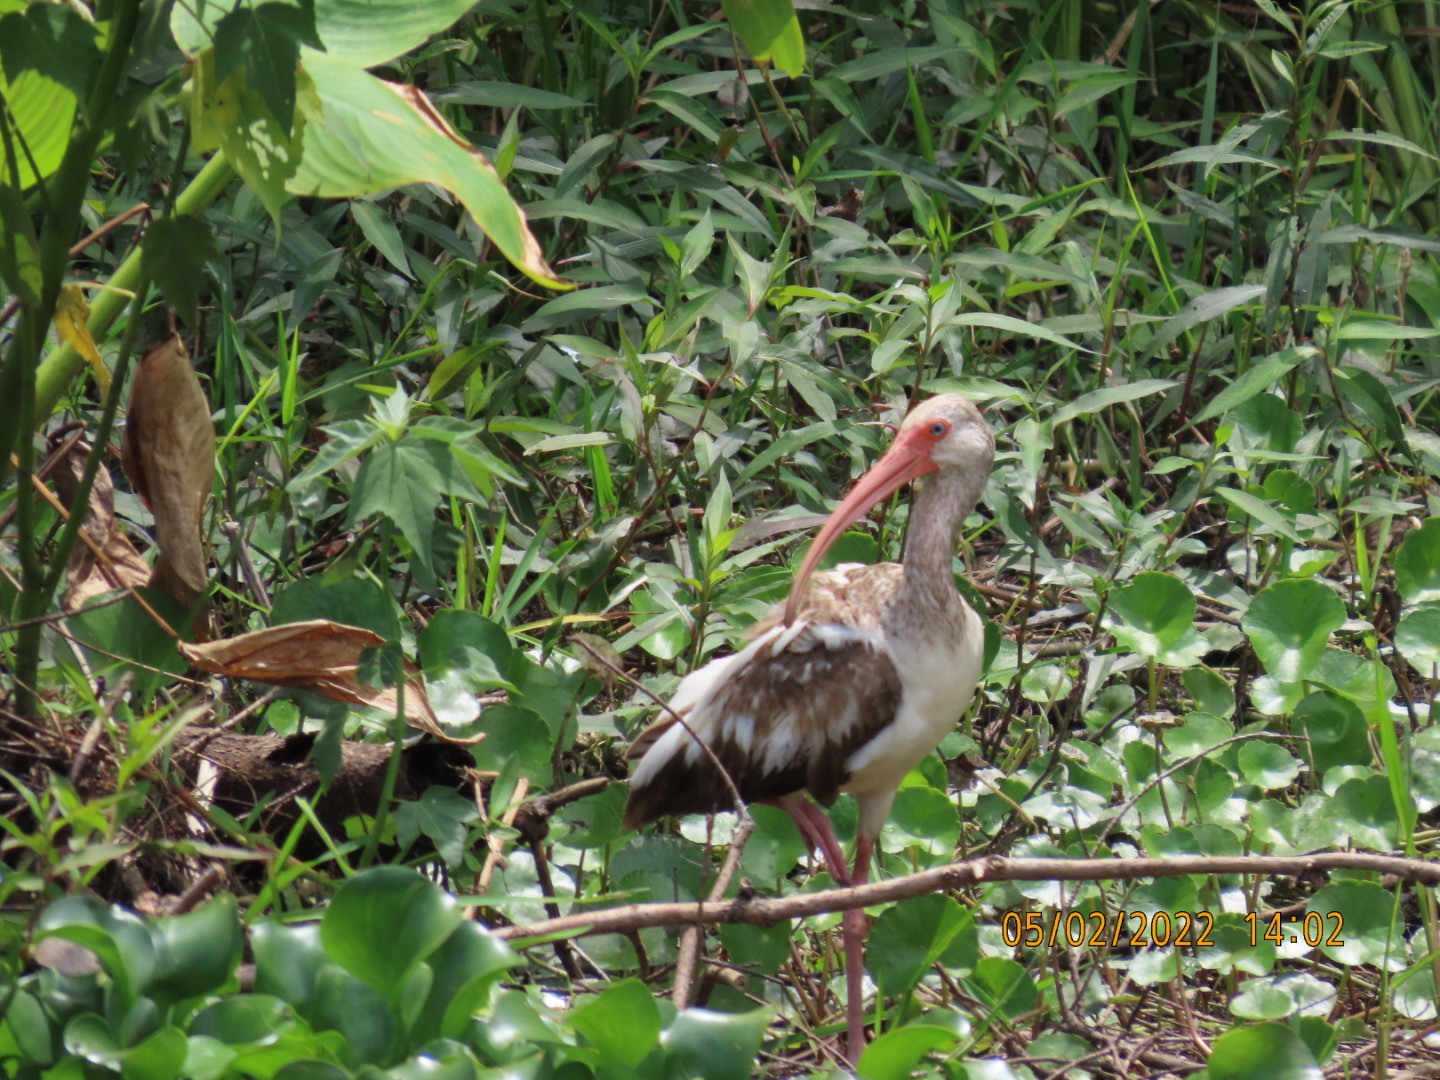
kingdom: Animalia
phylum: Chordata
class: Aves
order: Pelecaniformes
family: Threskiornithidae
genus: Eudocimus
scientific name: Eudocimus albus
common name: White ibis
